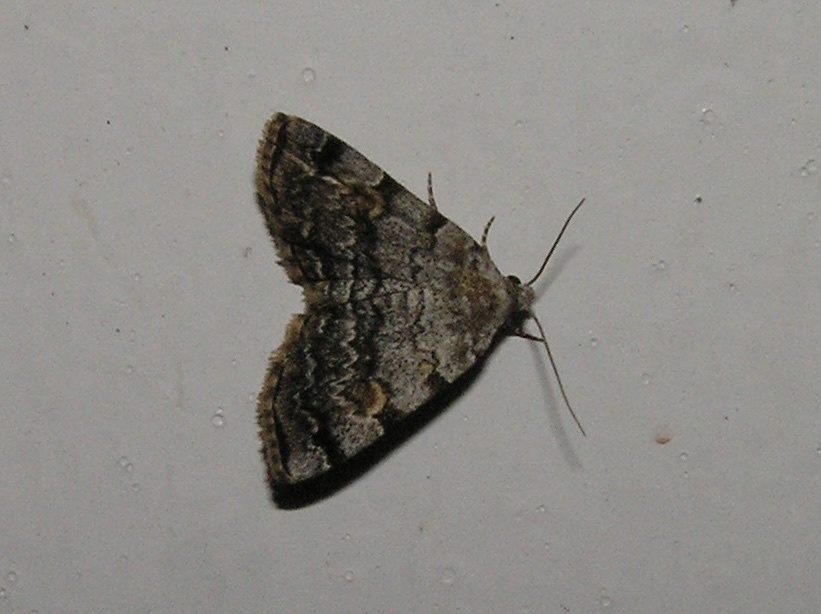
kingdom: Animalia
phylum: Arthropoda
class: Insecta
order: Lepidoptera
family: Erebidae
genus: Idia
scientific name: Idia americalis
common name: American idia moth
